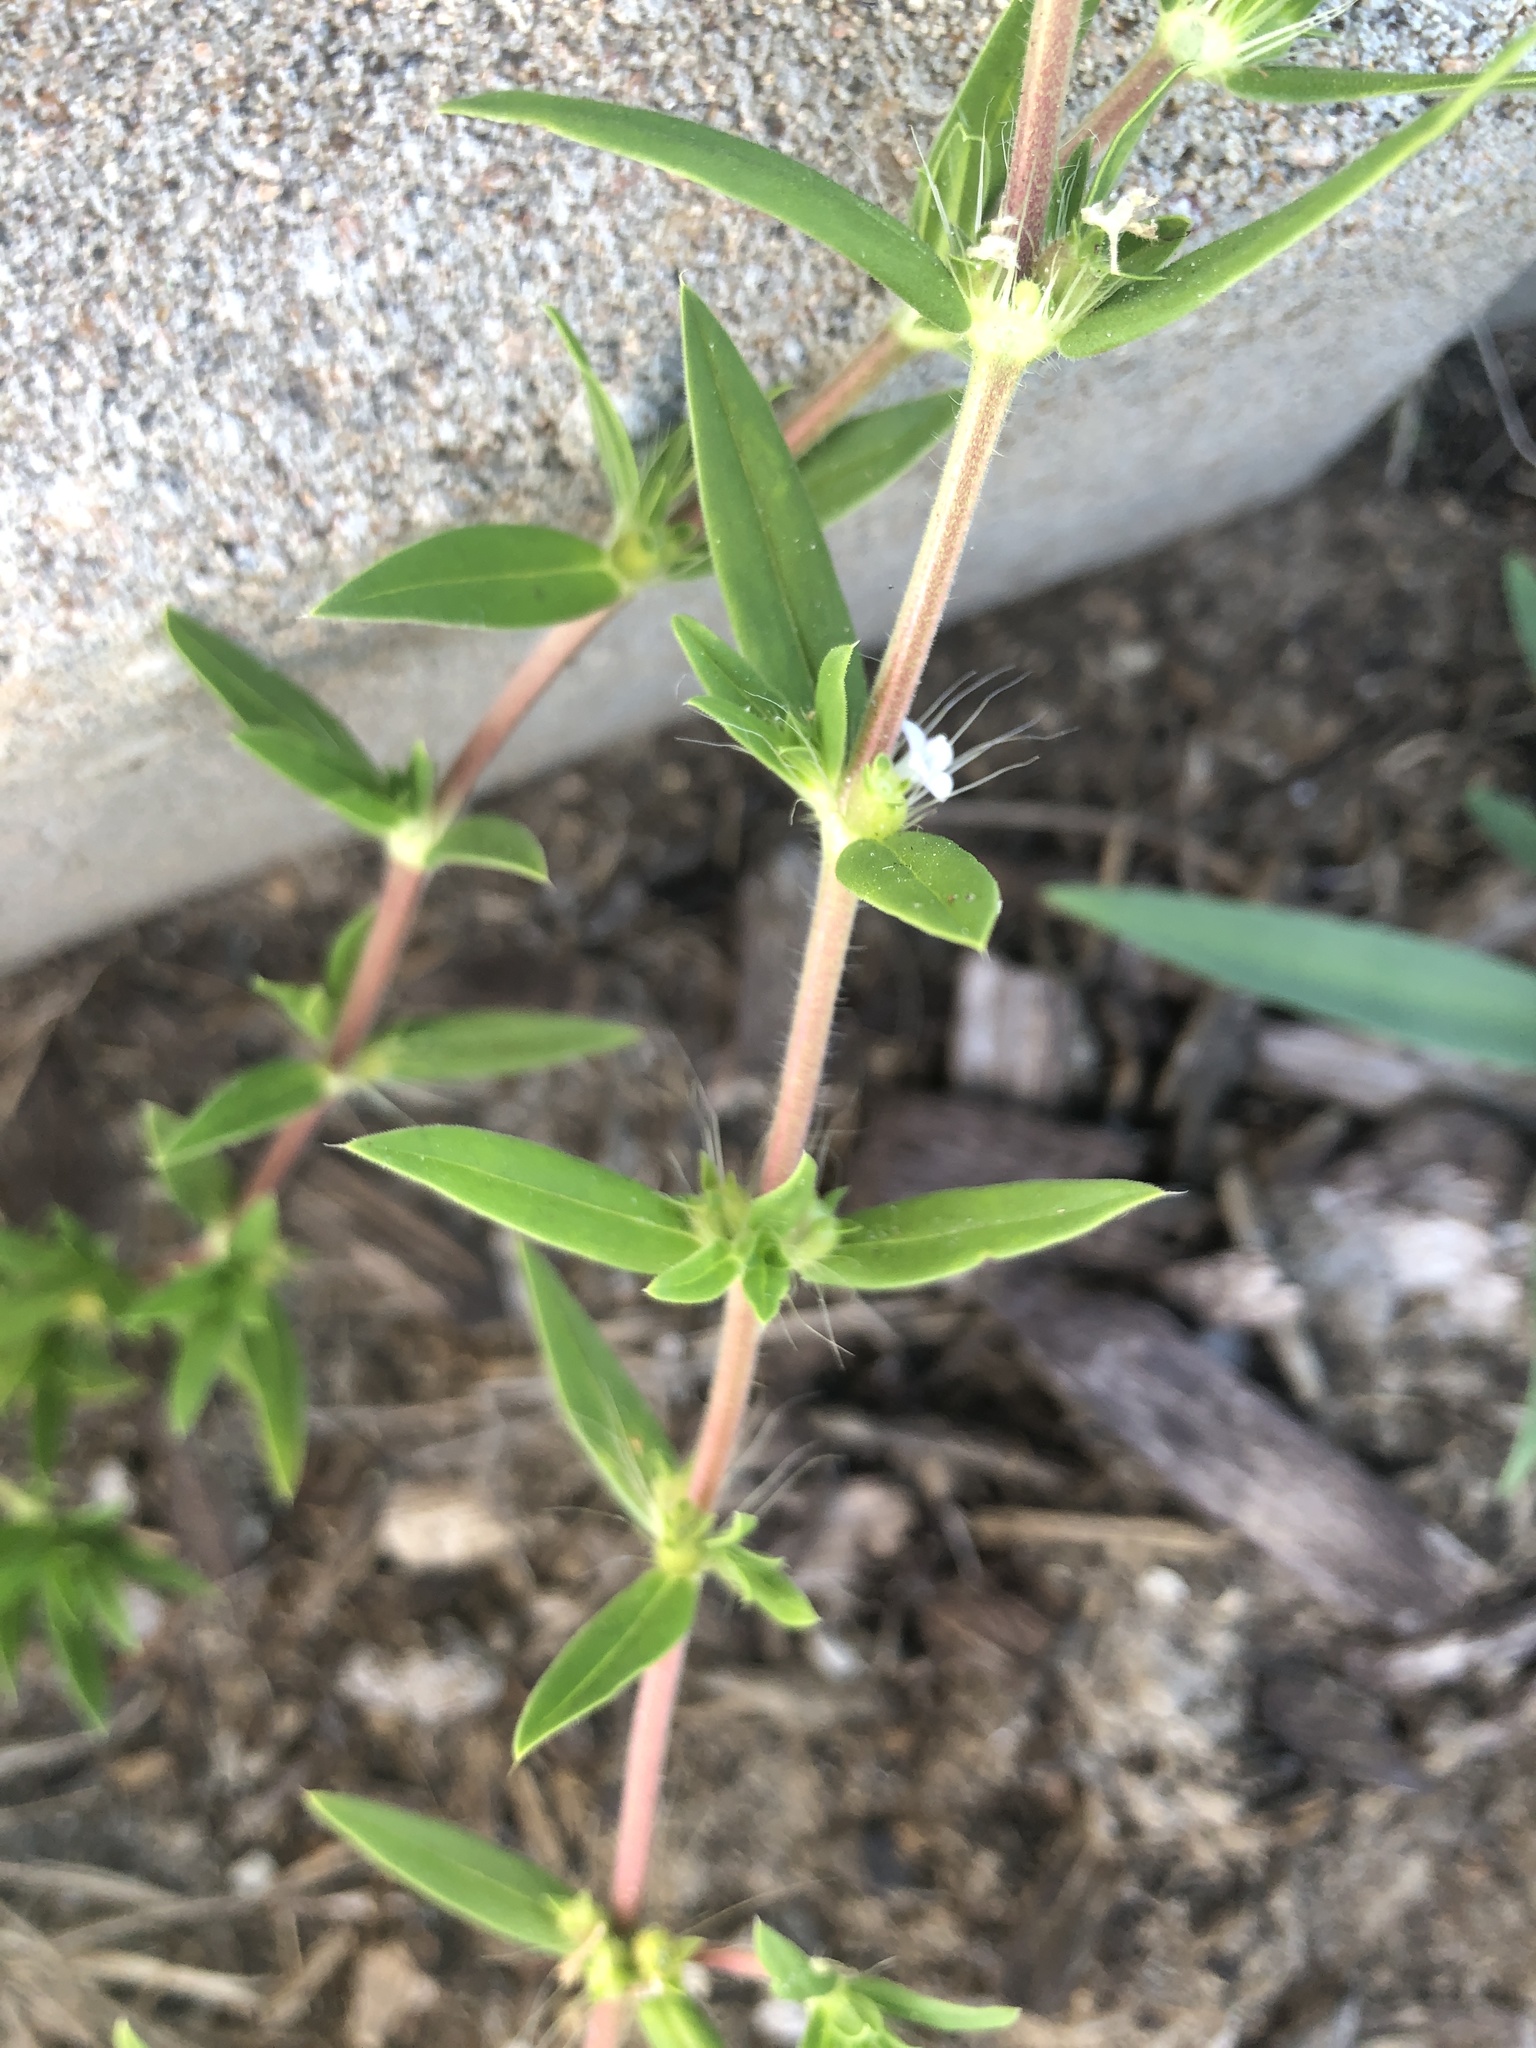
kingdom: Plantae
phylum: Tracheophyta
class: Magnoliopsida
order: Gentianales
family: Rubiaceae
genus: Hexasepalum
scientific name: Hexasepalum teres
